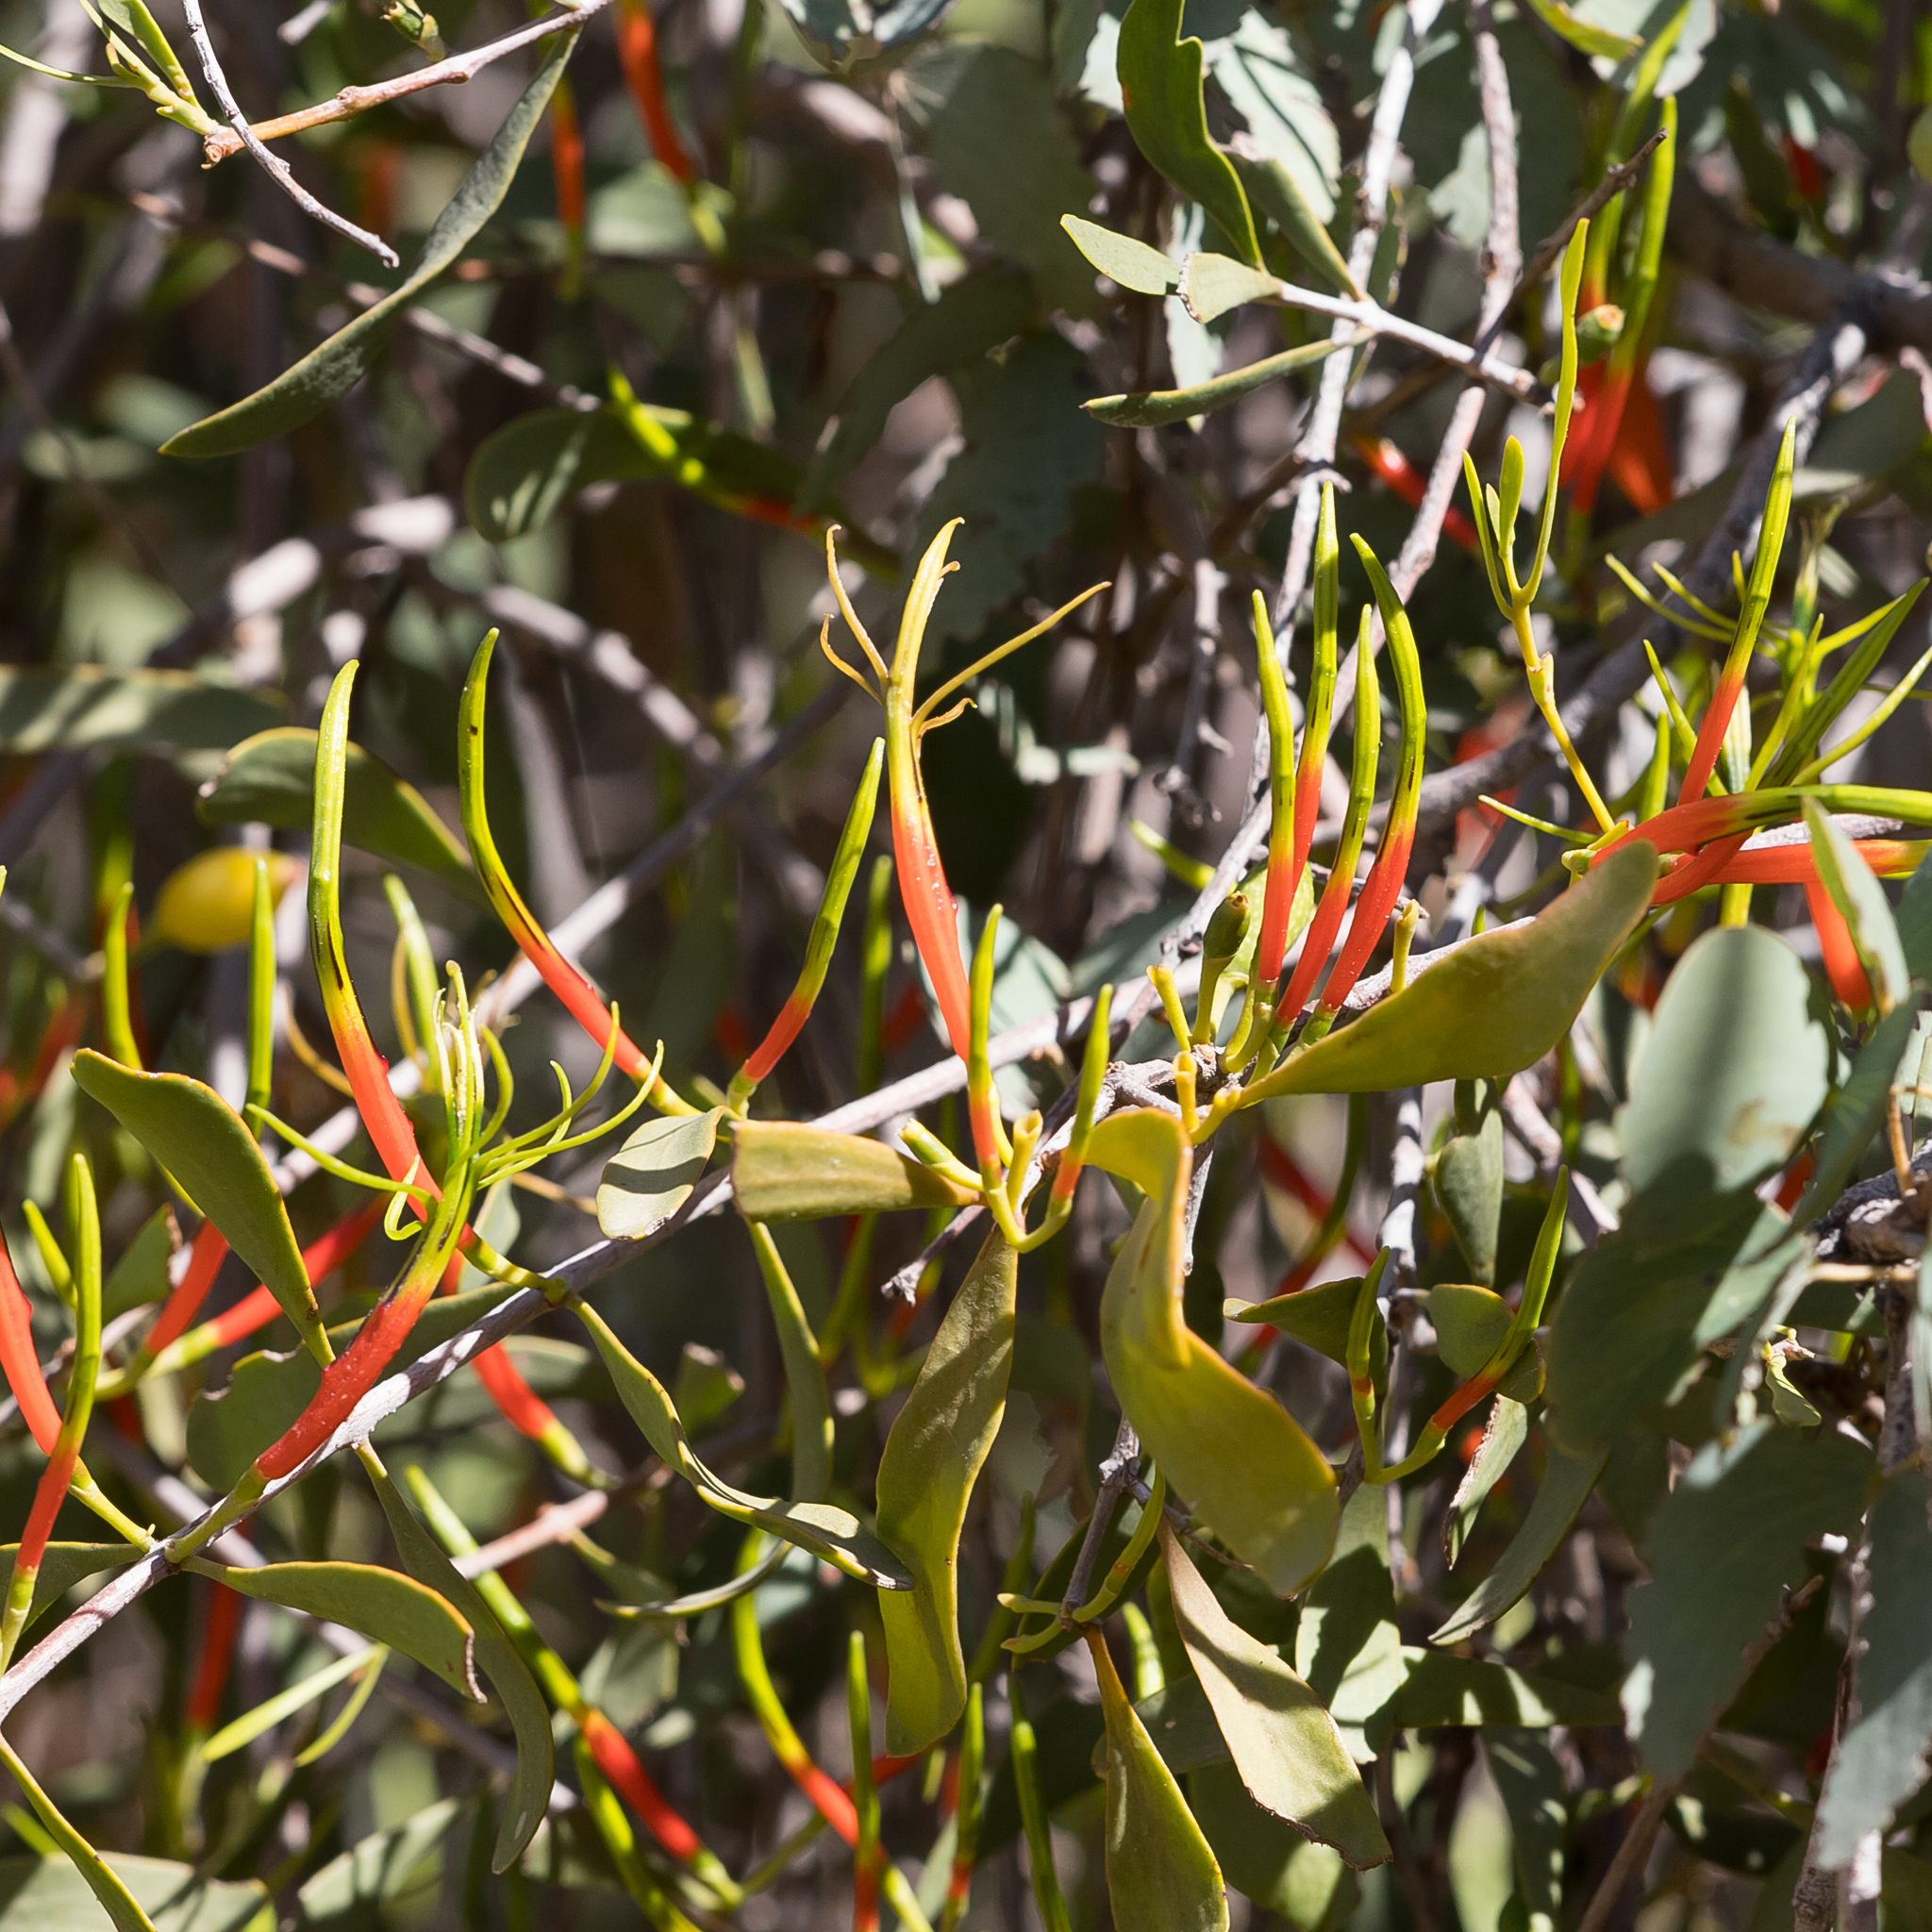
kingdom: Plantae
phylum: Tracheophyta
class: Magnoliopsida
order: Santalales
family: Loranthaceae
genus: Lysiana
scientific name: Lysiana subfalcata
